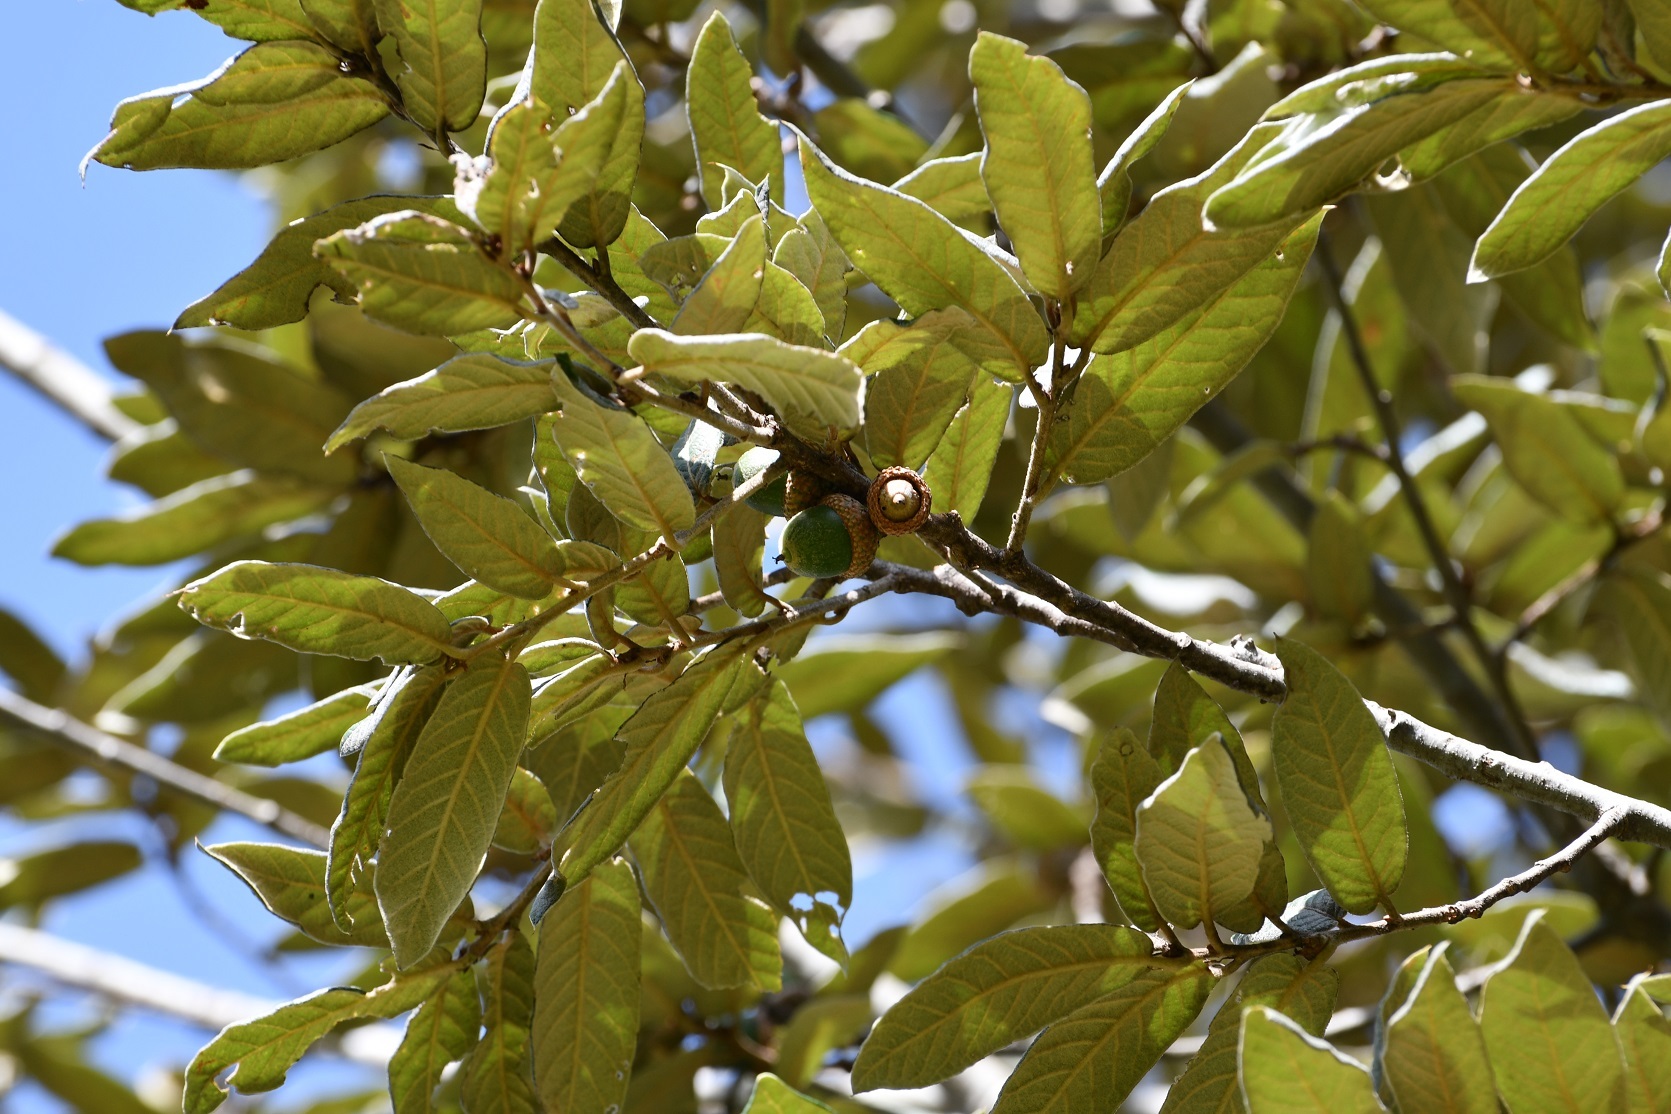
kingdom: Plantae
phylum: Tracheophyta
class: Magnoliopsida
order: Fagales
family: Fagaceae
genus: Quercus
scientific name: Quercus dysophylla
